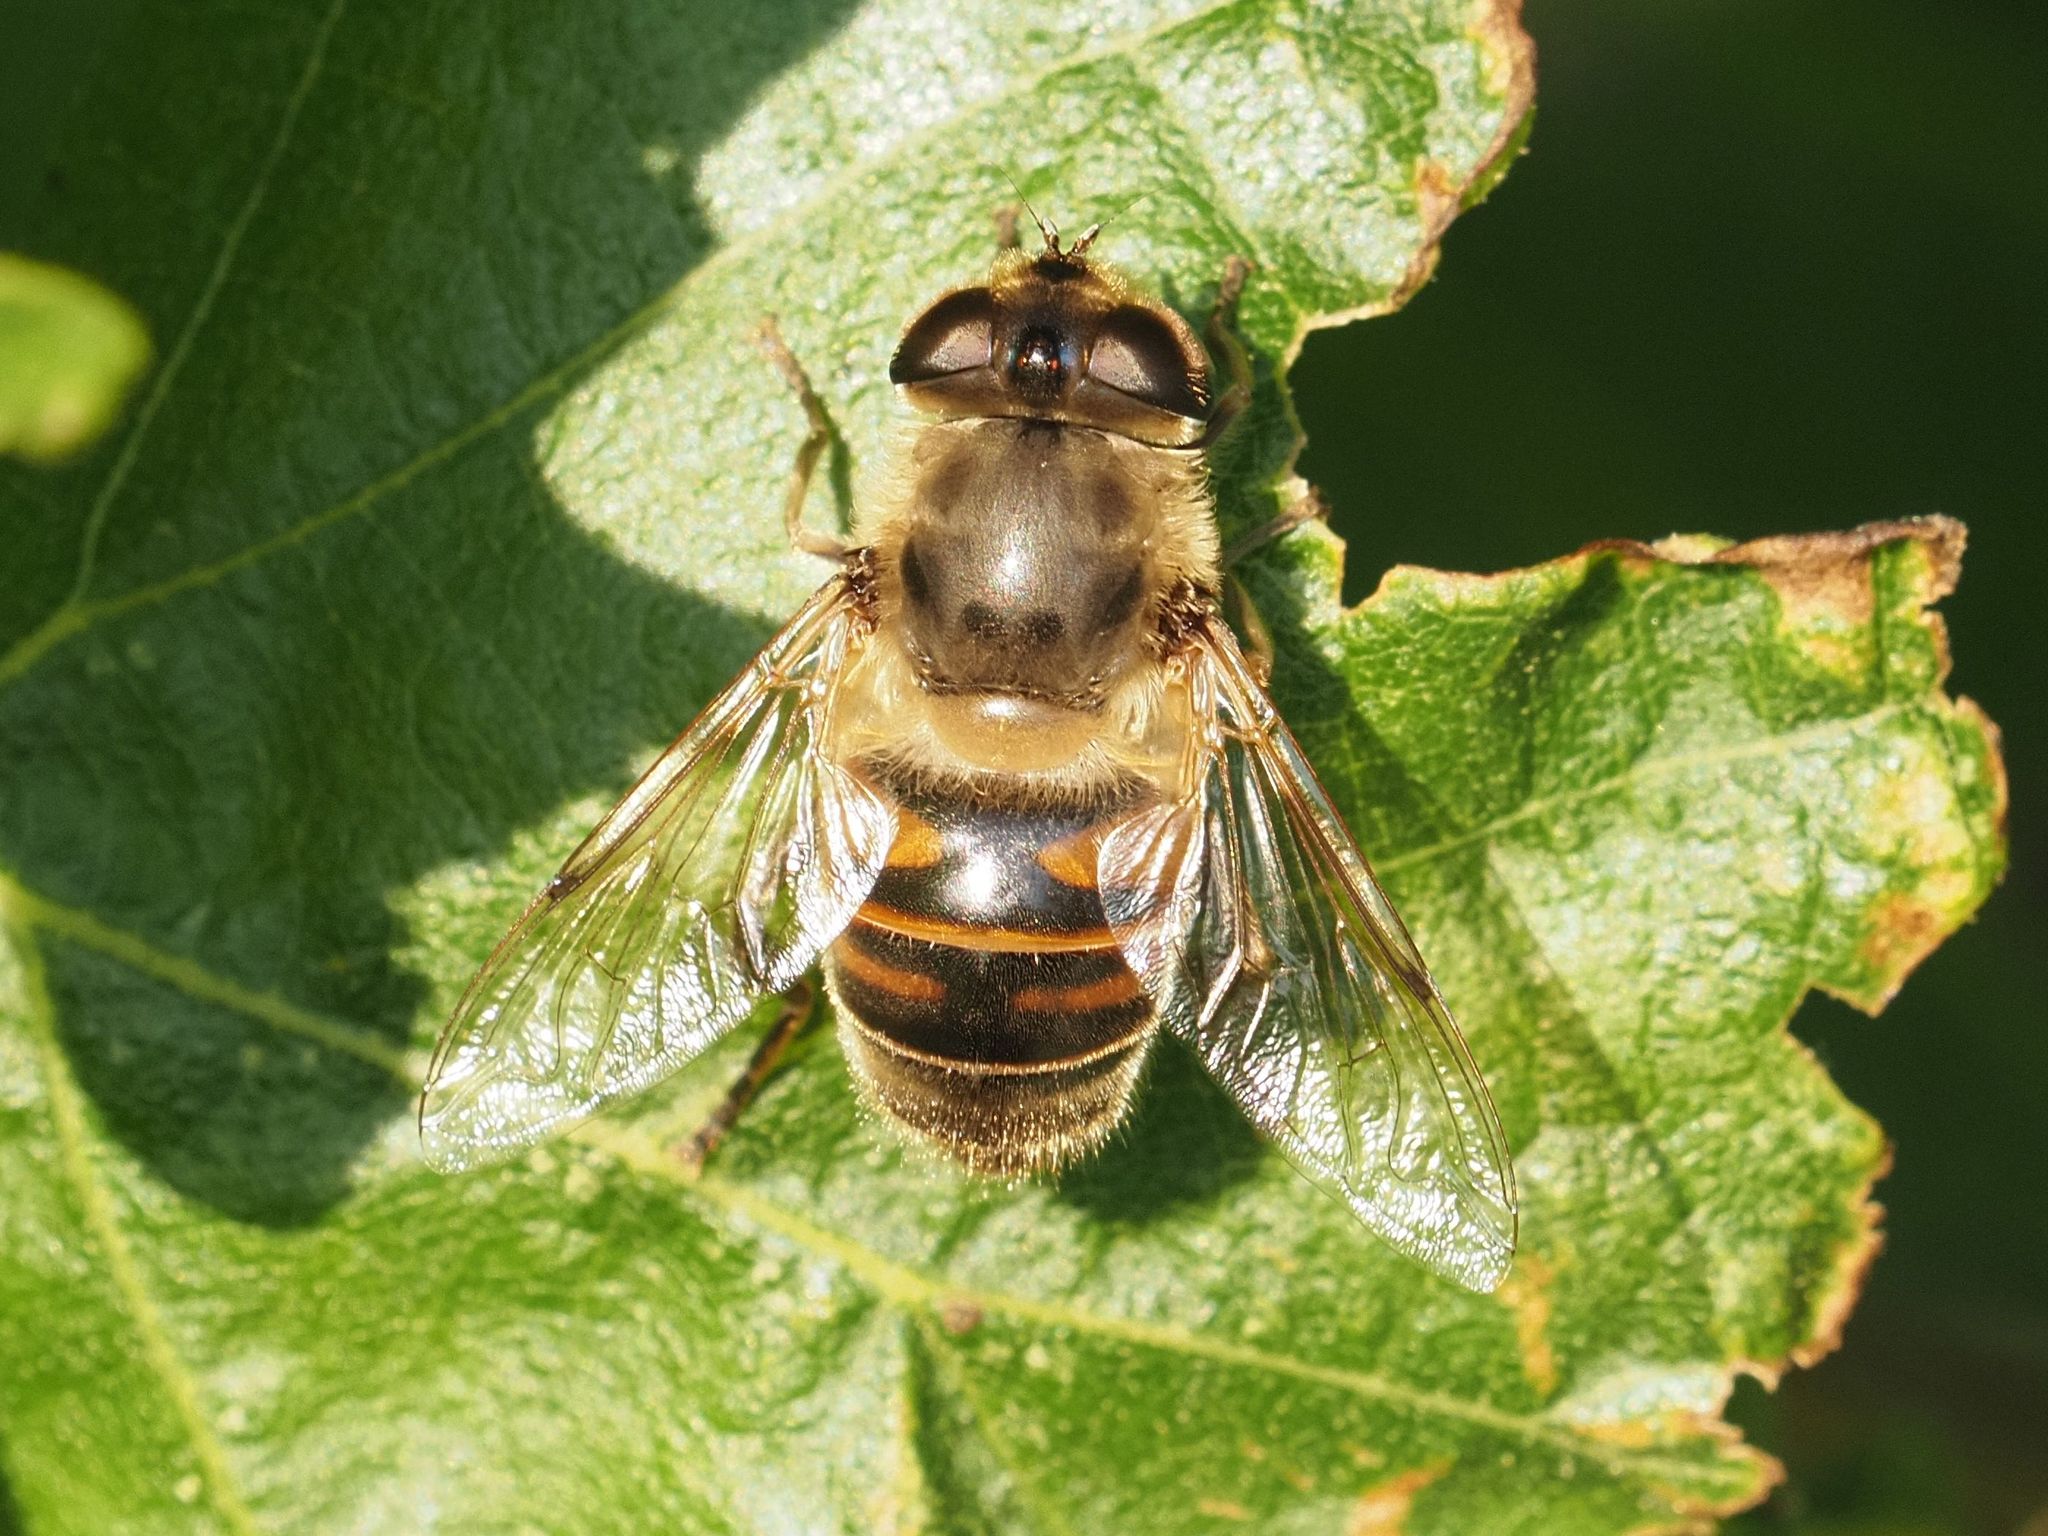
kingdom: Animalia
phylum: Arthropoda
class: Insecta
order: Diptera
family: Syrphidae
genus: Eristalis
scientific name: Eristalis tenax
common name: Drone fly
